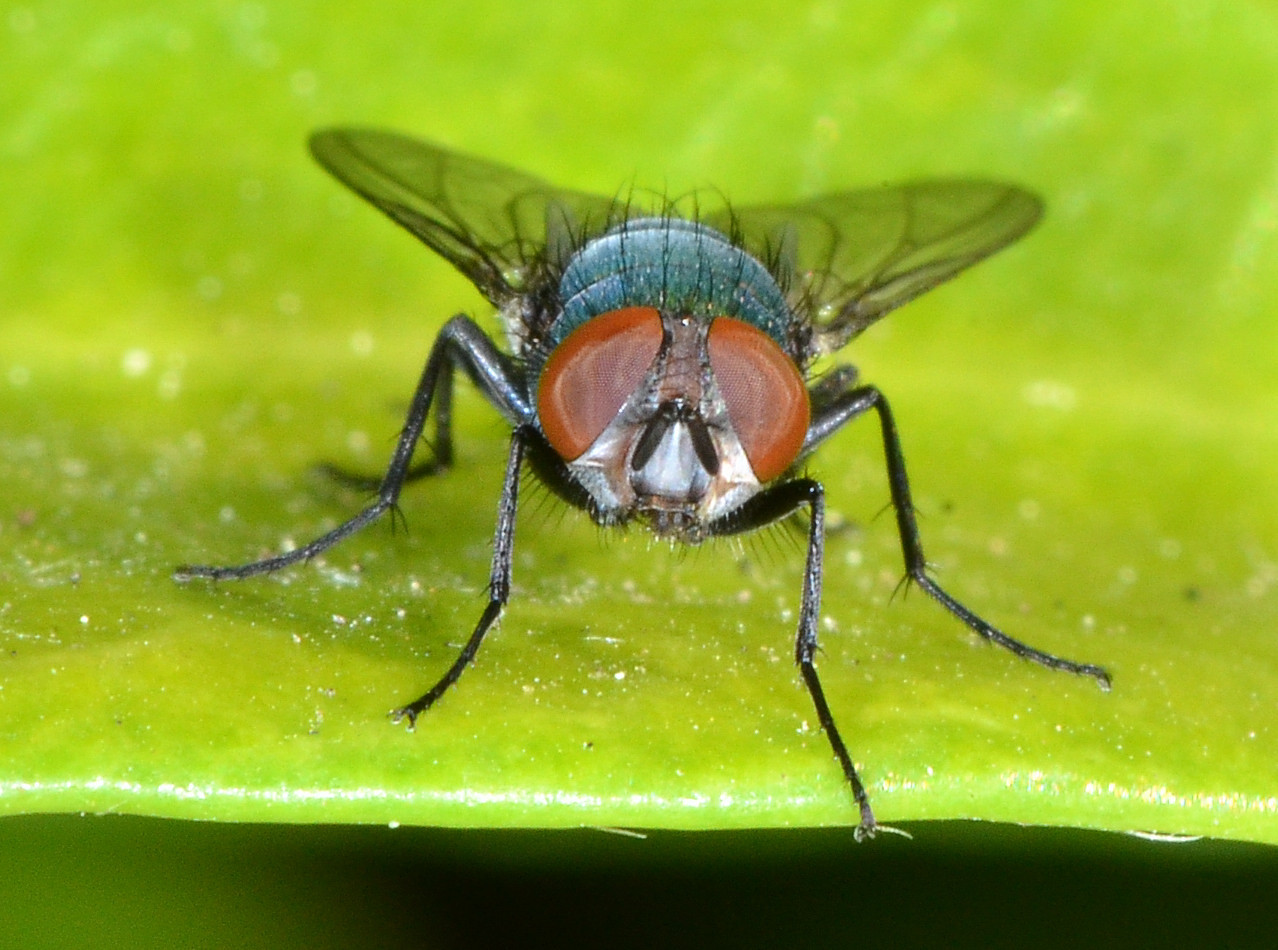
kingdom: Animalia
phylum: Arthropoda
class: Insecta
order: Diptera
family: Calliphoridae
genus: Lucilia
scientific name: Lucilia sericata
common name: Blow fly
